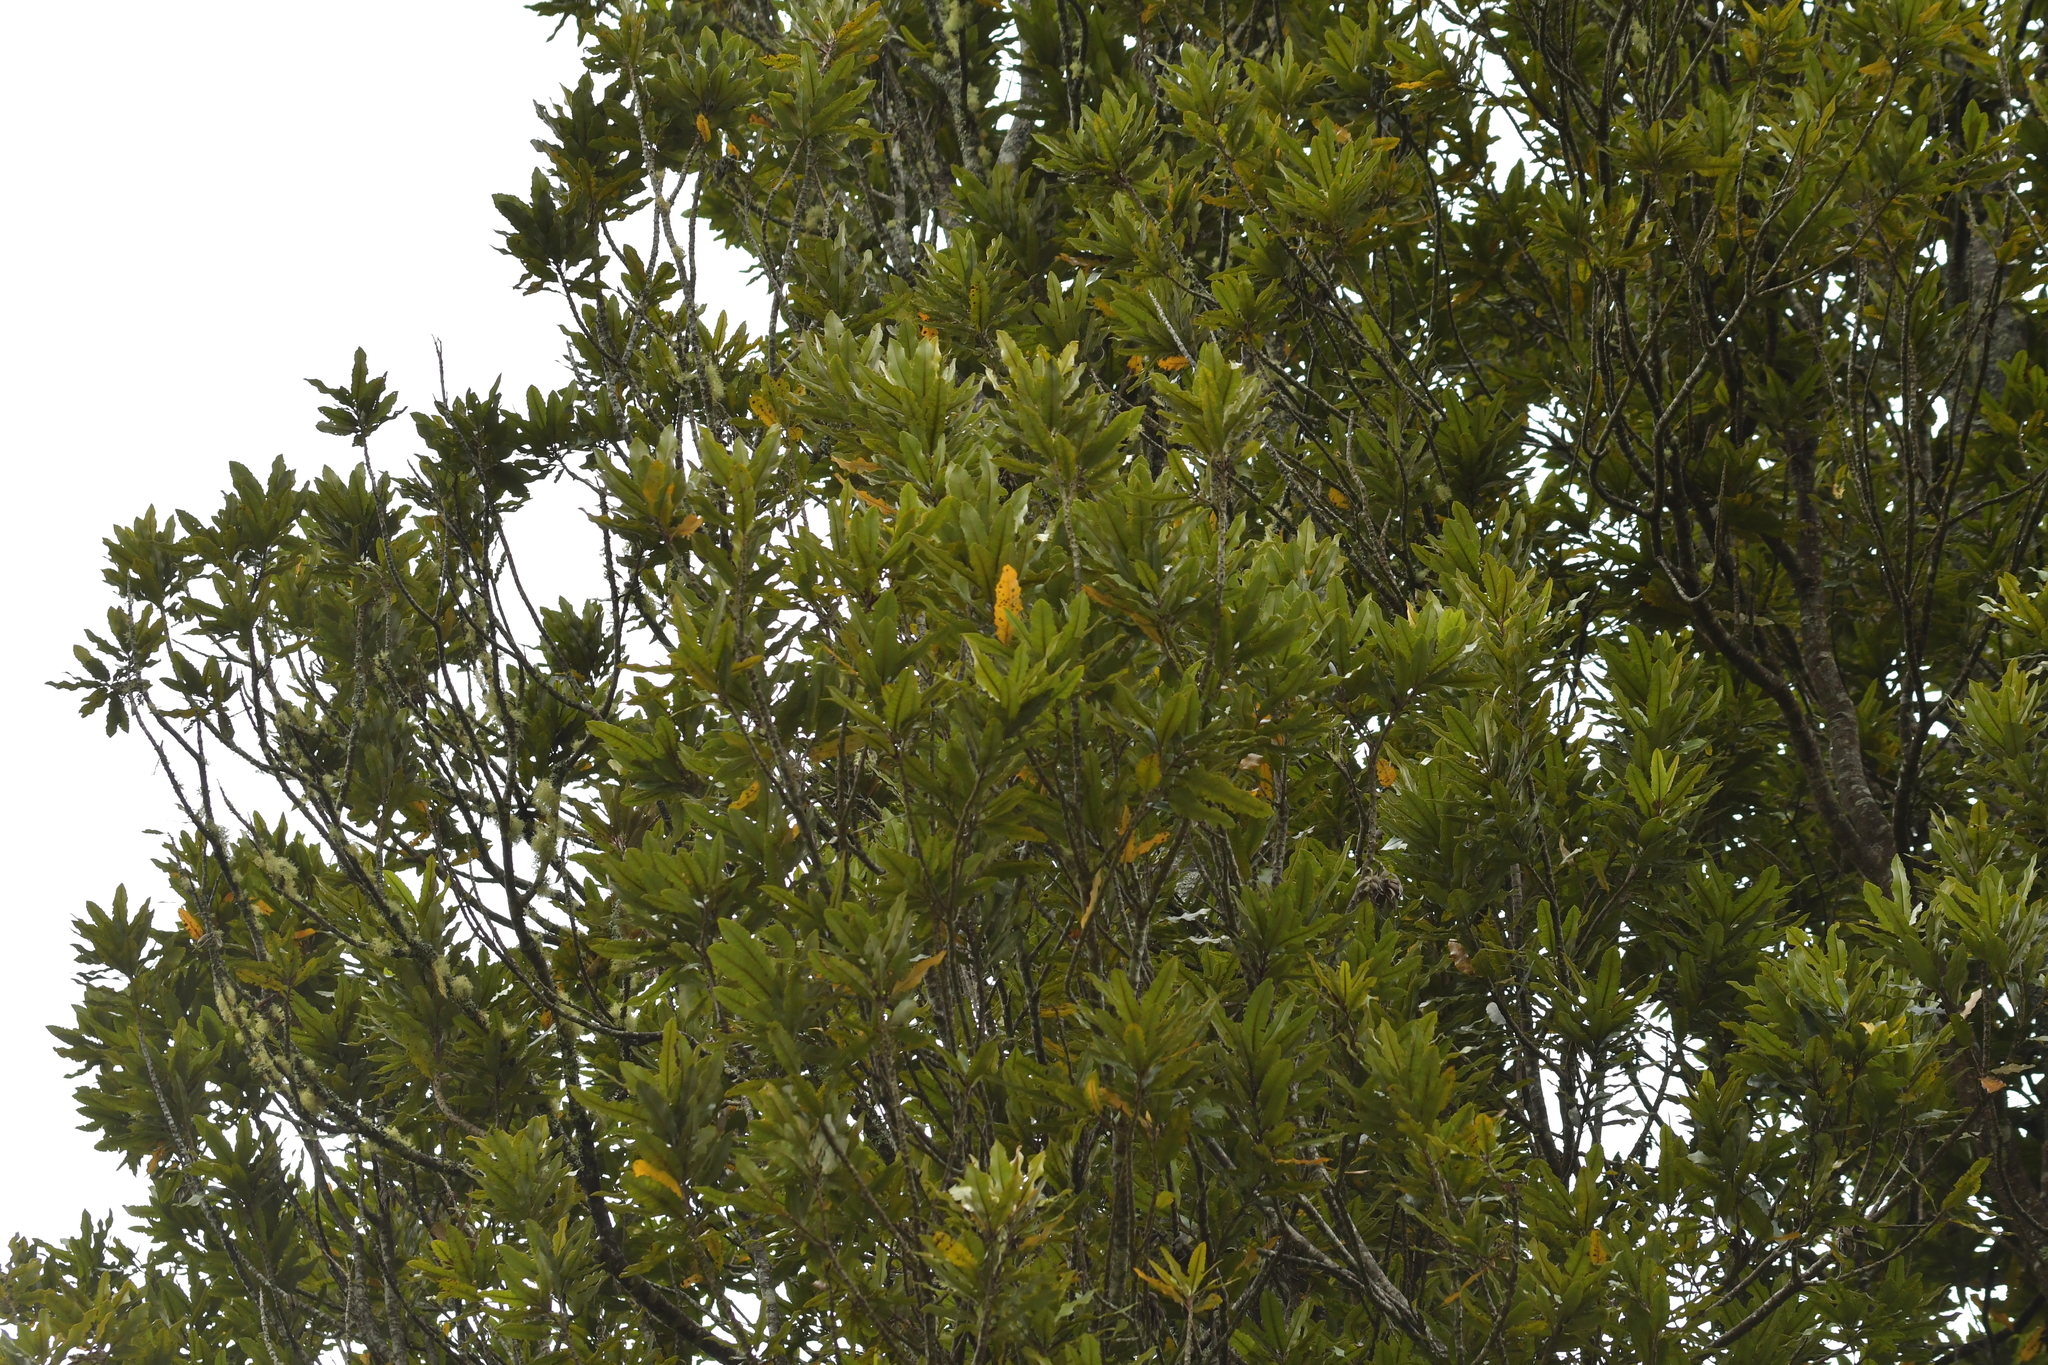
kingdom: Plantae
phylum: Tracheophyta
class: Magnoliopsida
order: Proteales
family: Proteaceae
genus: Knightia
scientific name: Knightia excelsa
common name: New zealand-honeysuckle
